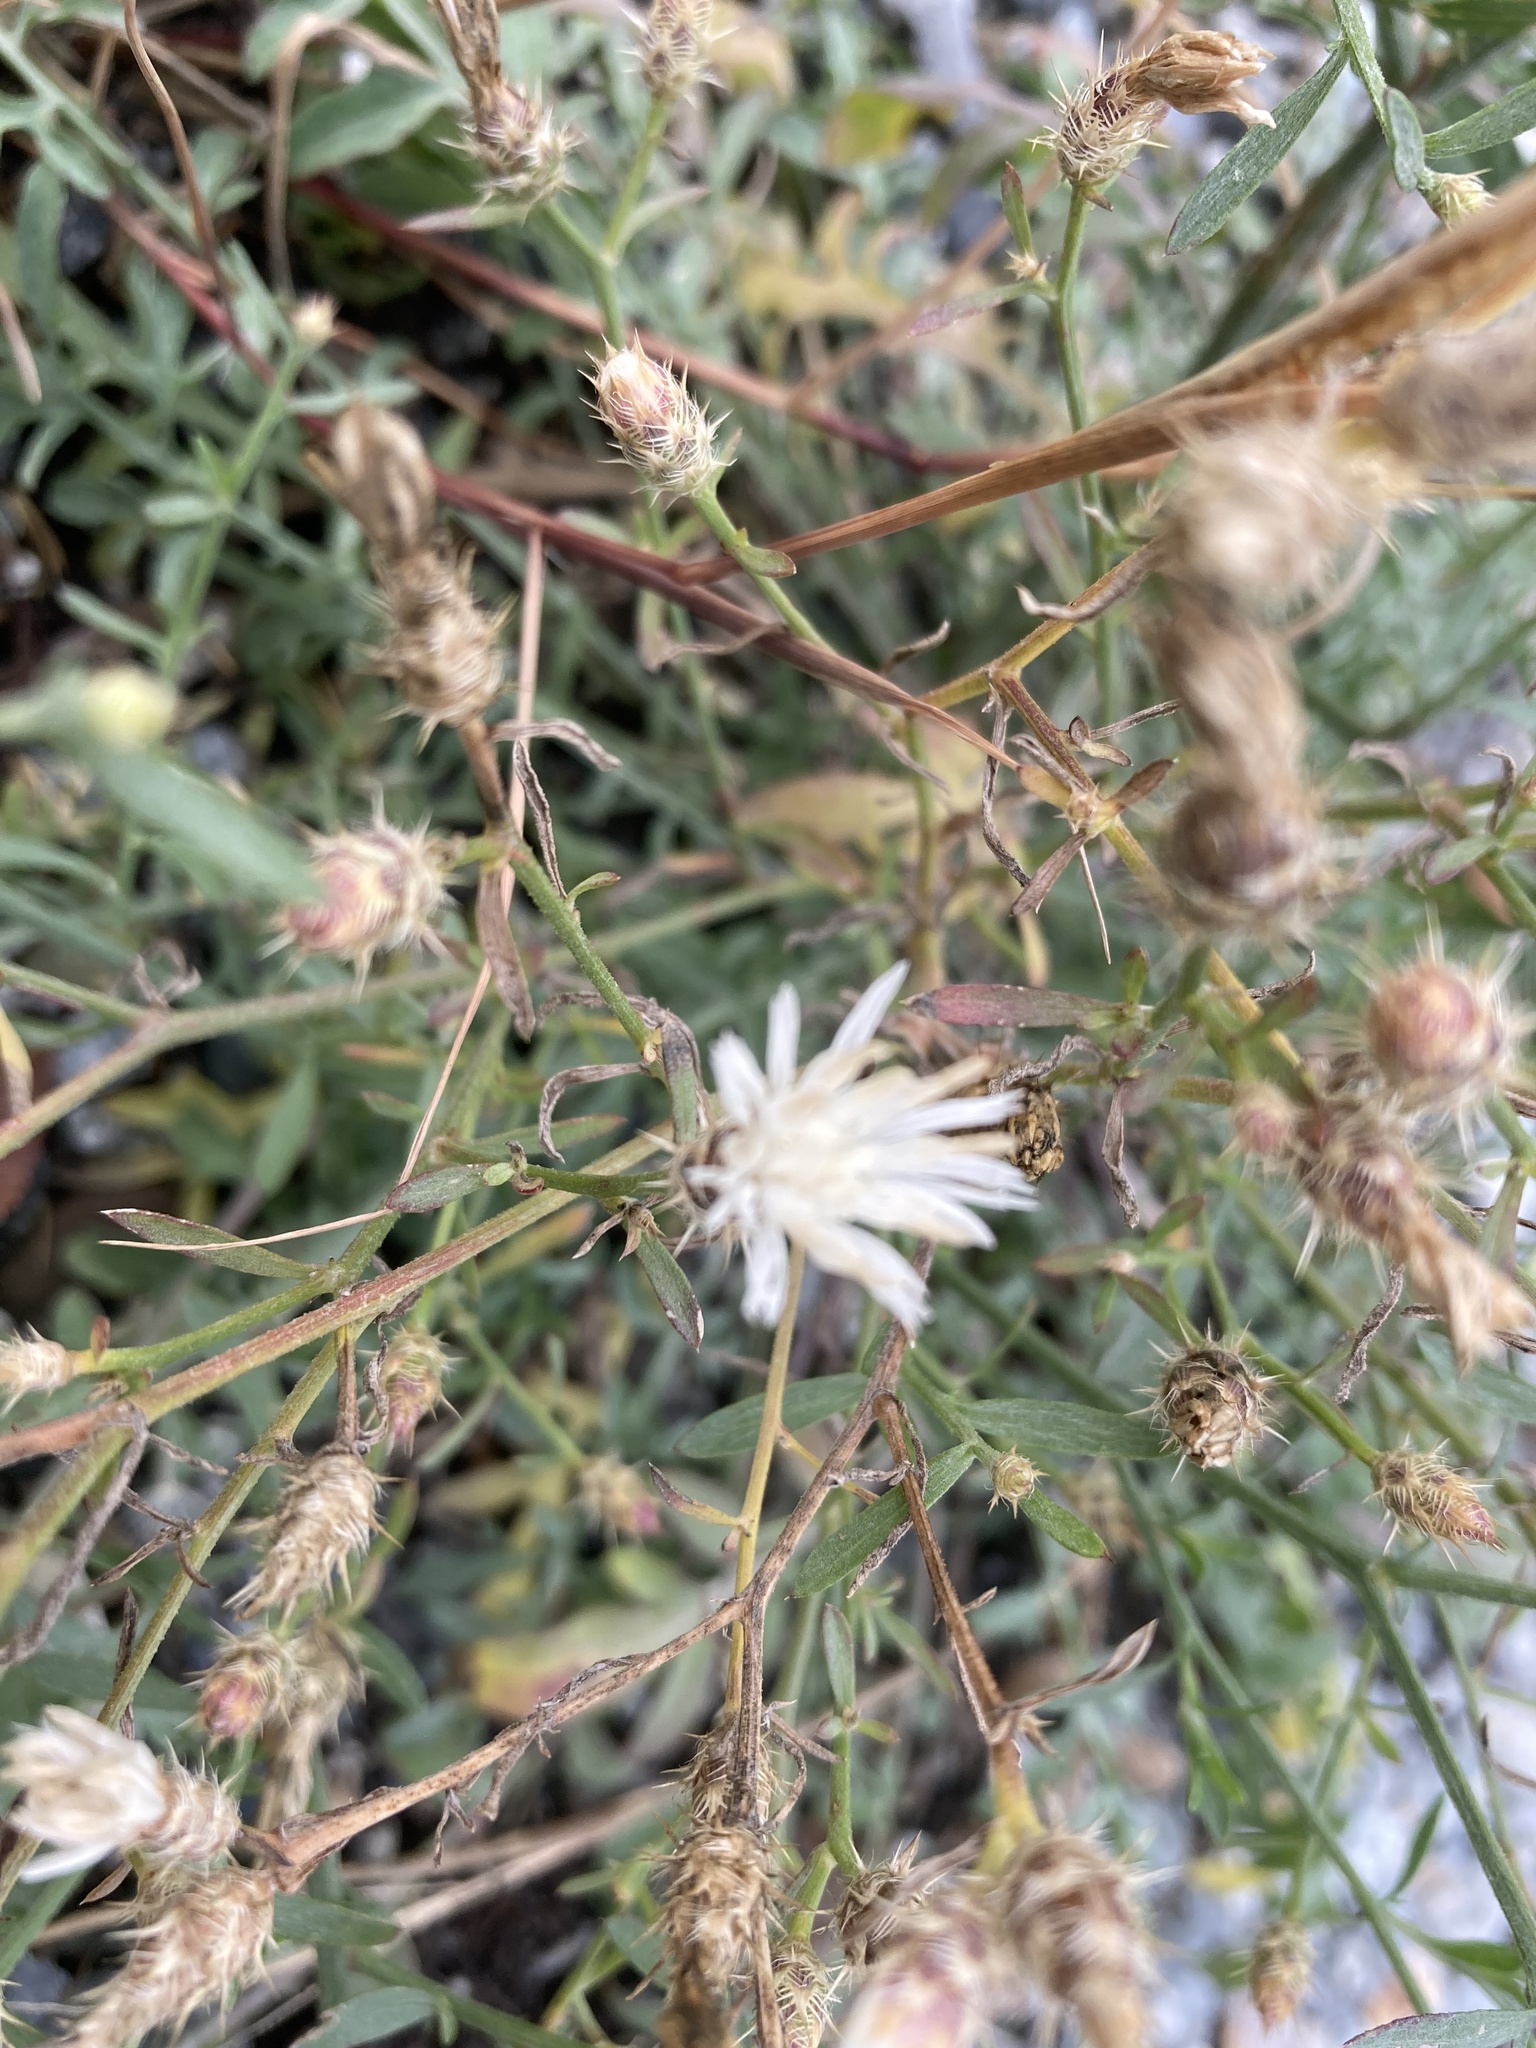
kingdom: Plantae
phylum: Tracheophyta
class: Magnoliopsida
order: Asterales
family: Asteraceae
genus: Centaurea
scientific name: Centaurea diffusa
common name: Diffuse knapweed
